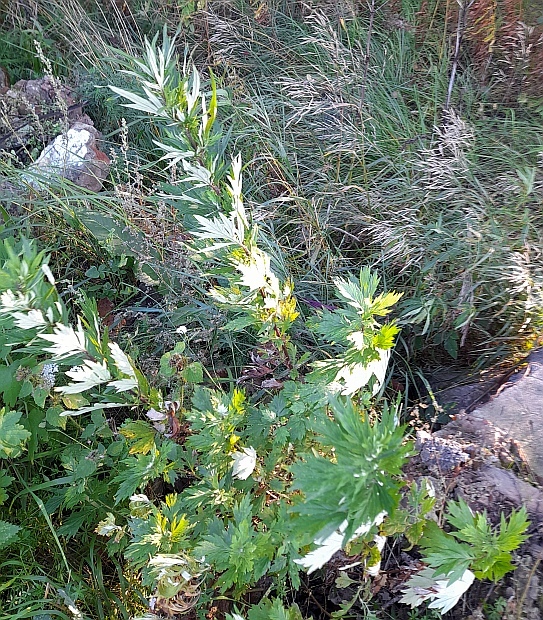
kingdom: Plantae
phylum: Tracheophyta
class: Magnoliopsida
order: Asterales
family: Asteraceae
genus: Artemisia
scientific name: Artemisia vulgaris
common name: Mugwort
